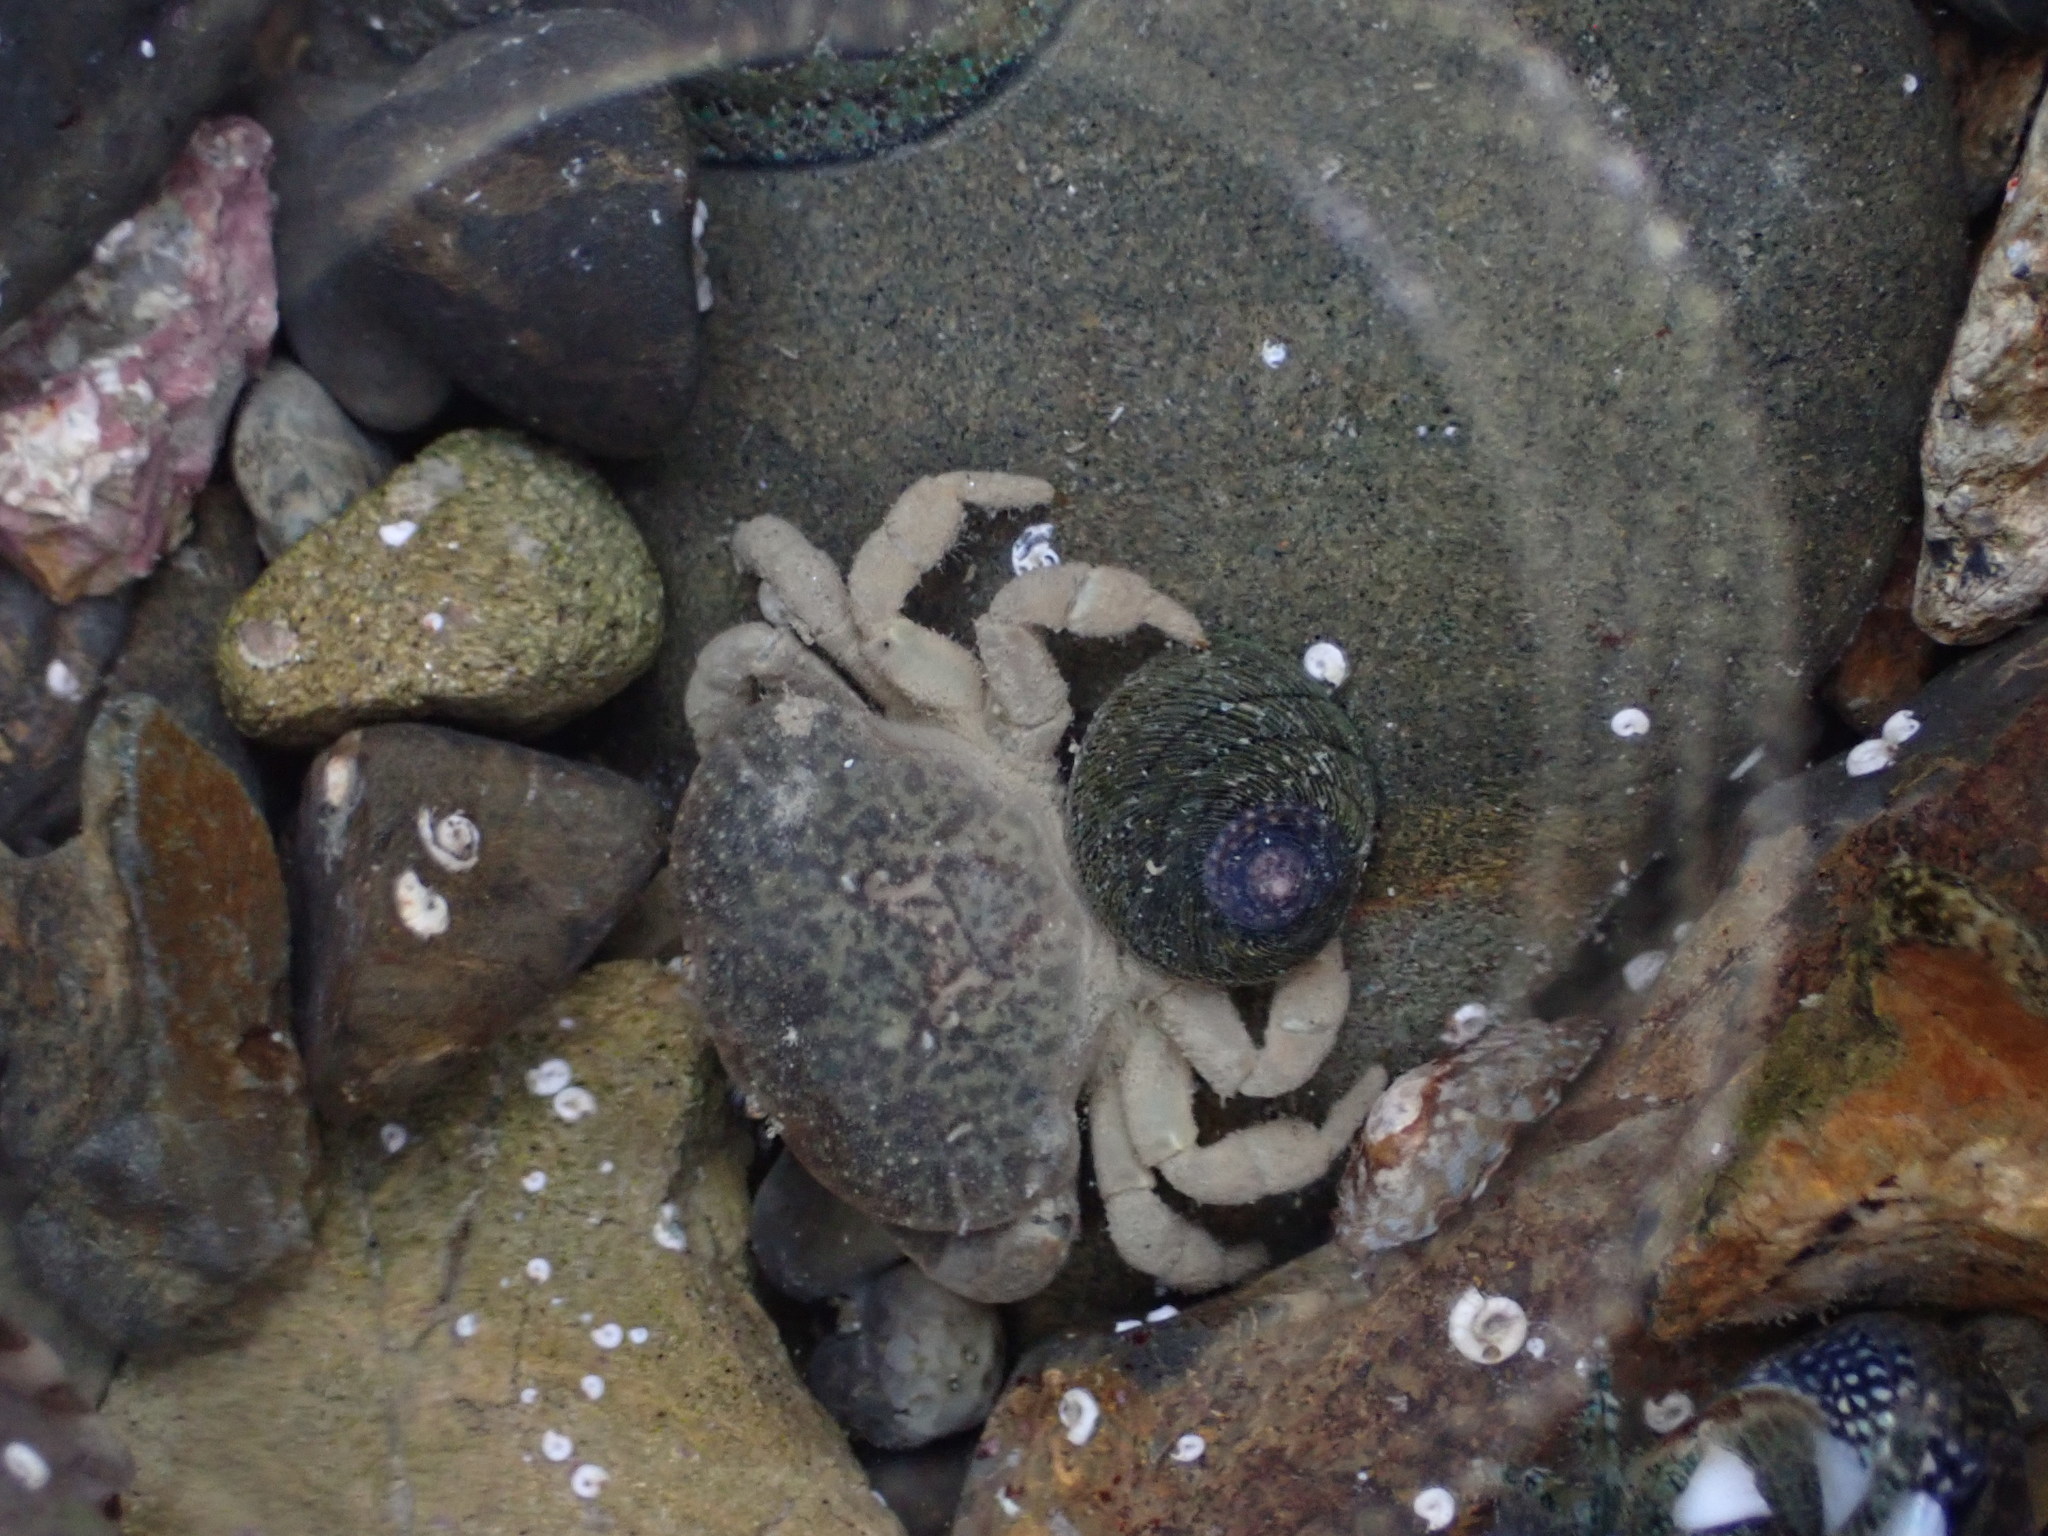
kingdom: Animalia
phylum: Arthropoda
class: Malacostraca
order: Decapoda
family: Heteroziidae
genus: Heterozius
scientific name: Heterozius rotundifrons
